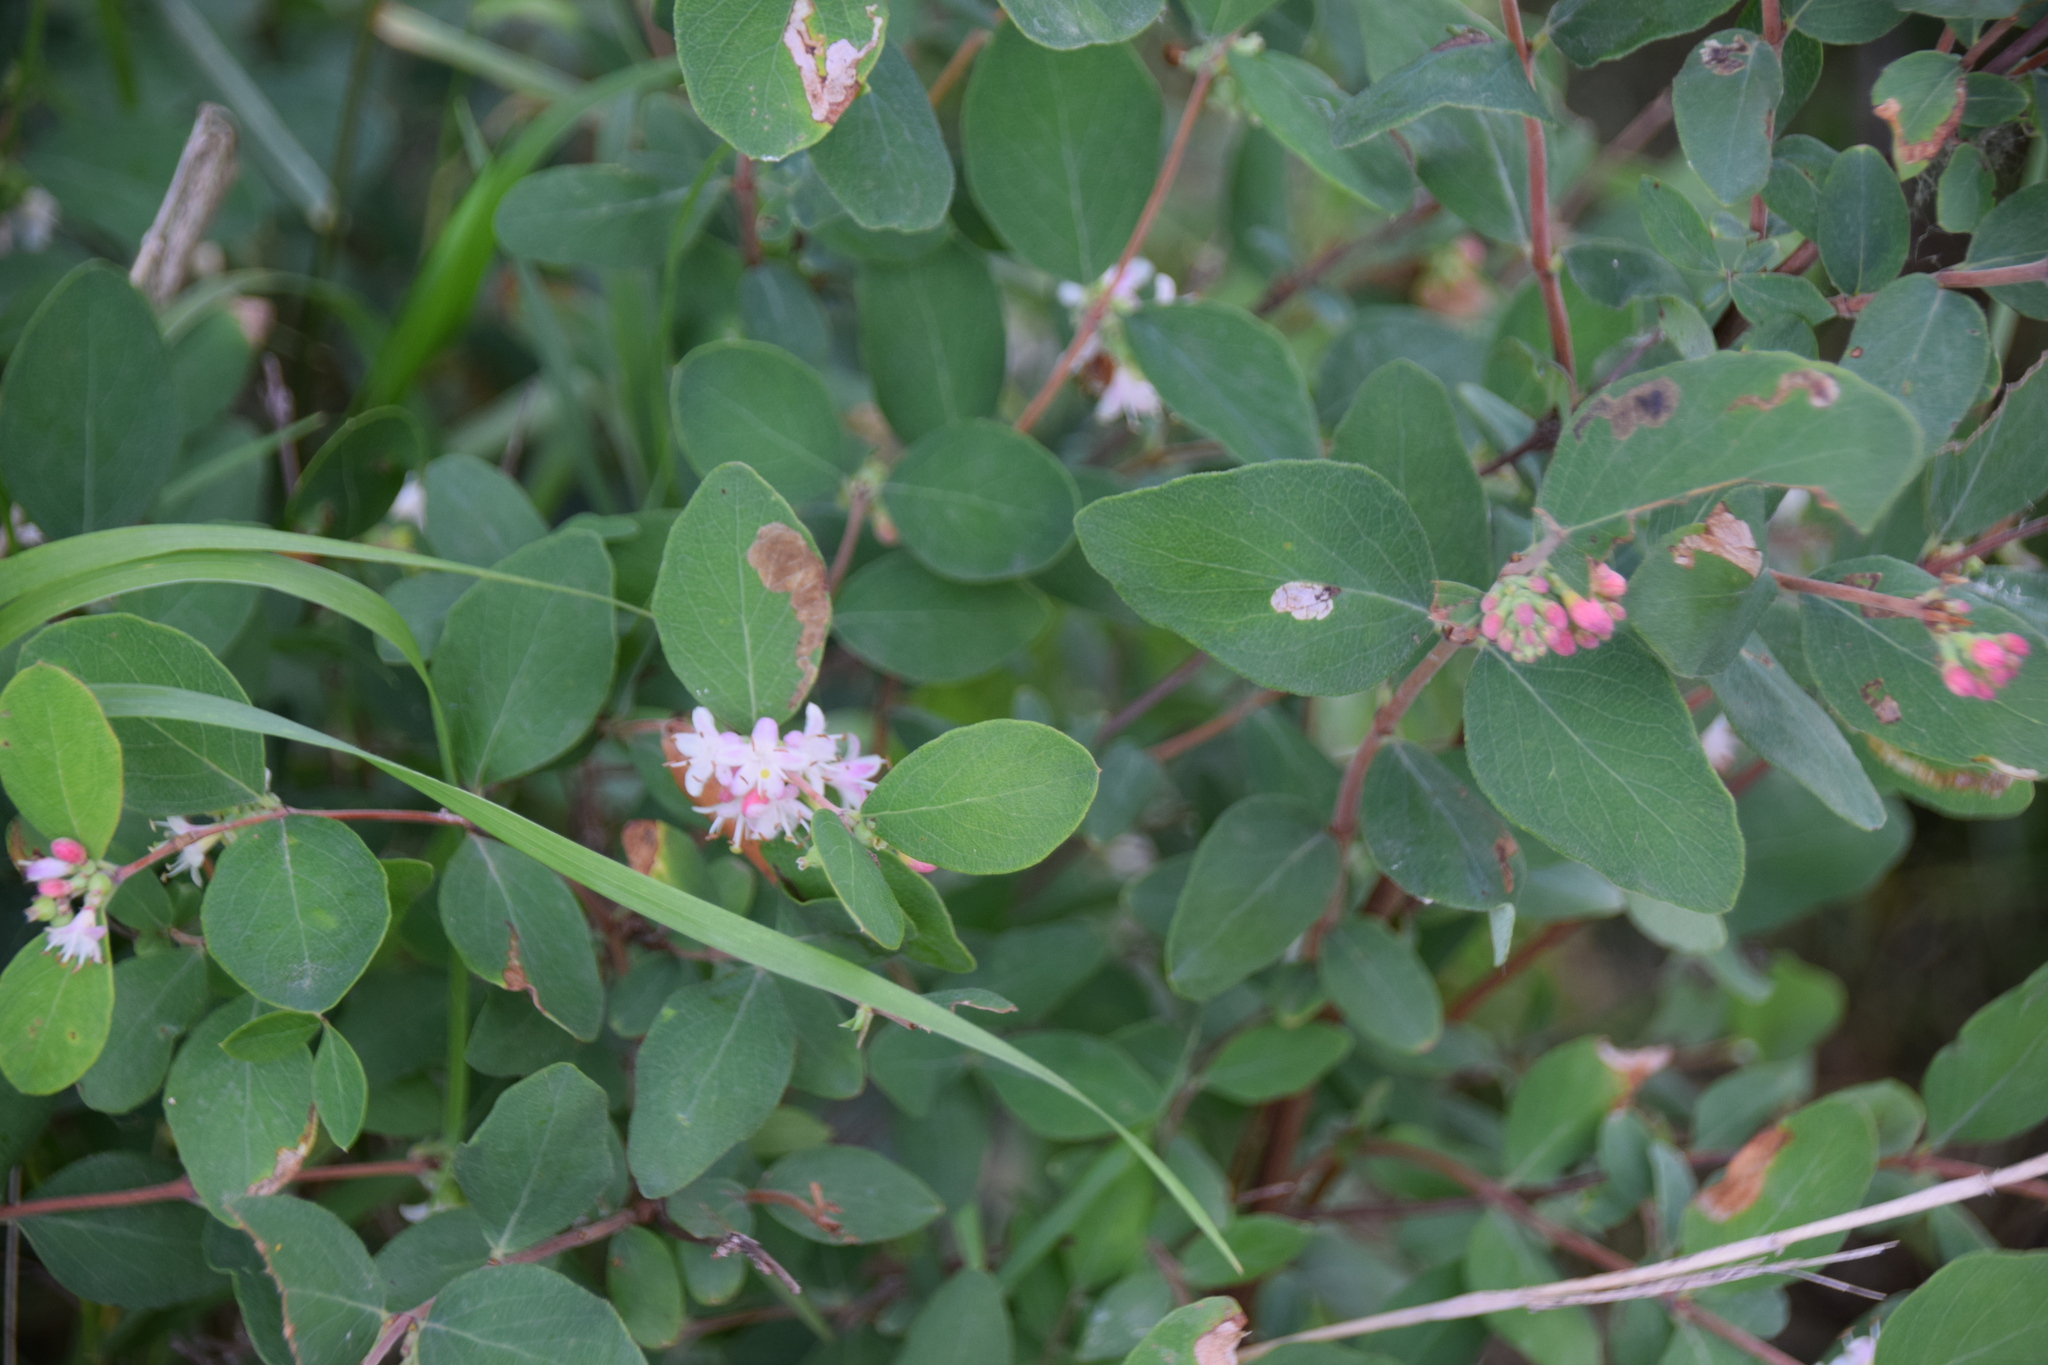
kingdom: Plantae
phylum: Tracheophyta
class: Magnoliopsida
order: Dipsacales
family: Caprifoliaceae
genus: Symphoricarpos
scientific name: Symphoricarpos occidentalis
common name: Wolfberry
